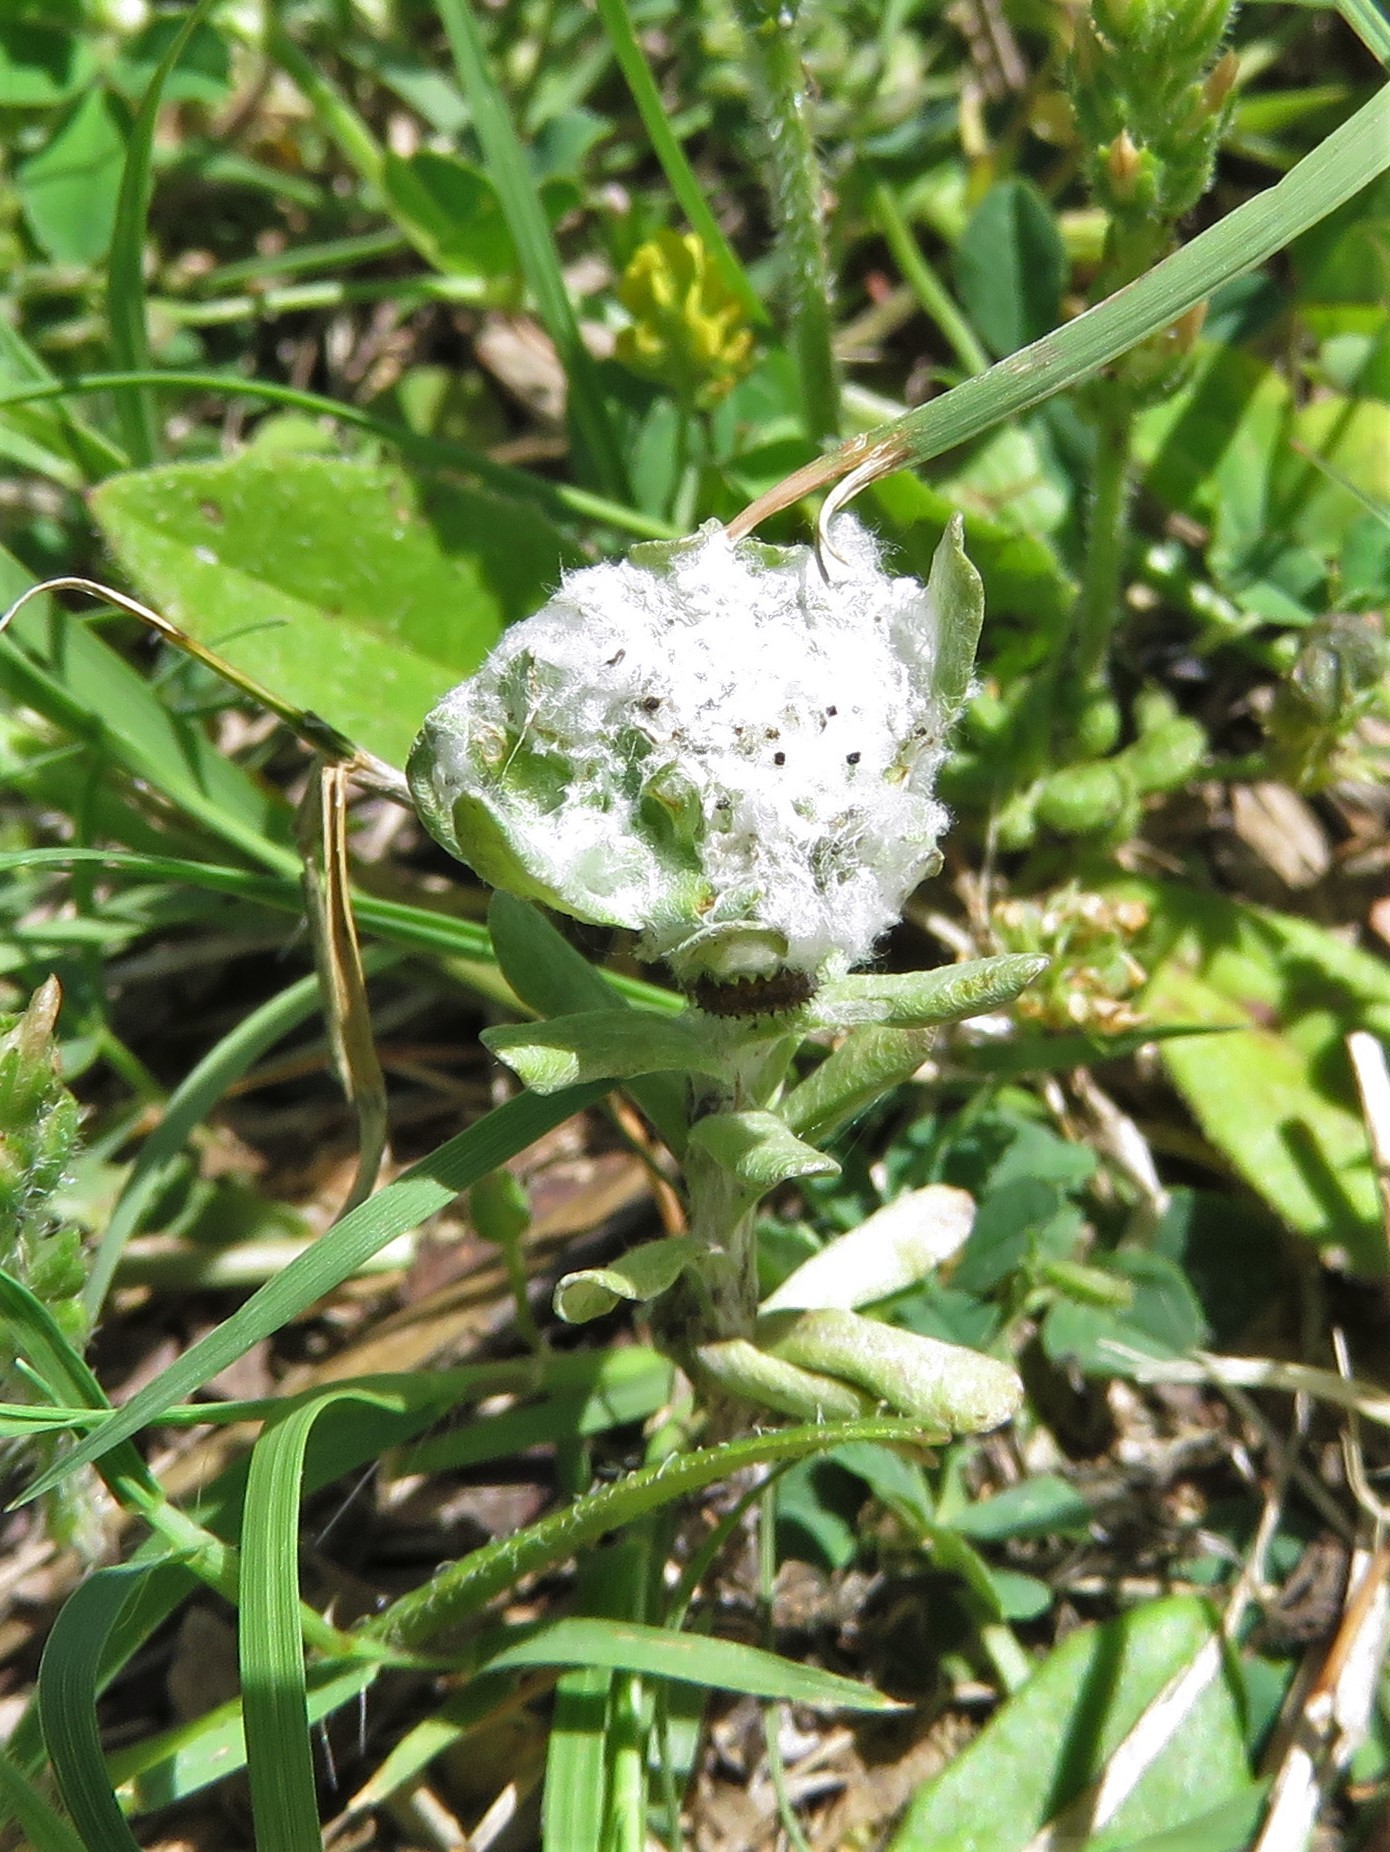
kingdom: Plantae
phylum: Tracheophyta
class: Magnoliopsida
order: Asterales
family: Asteraceae
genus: Diaperia
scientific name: Diaperia prolifera
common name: Big-head rabbit-tobacco
